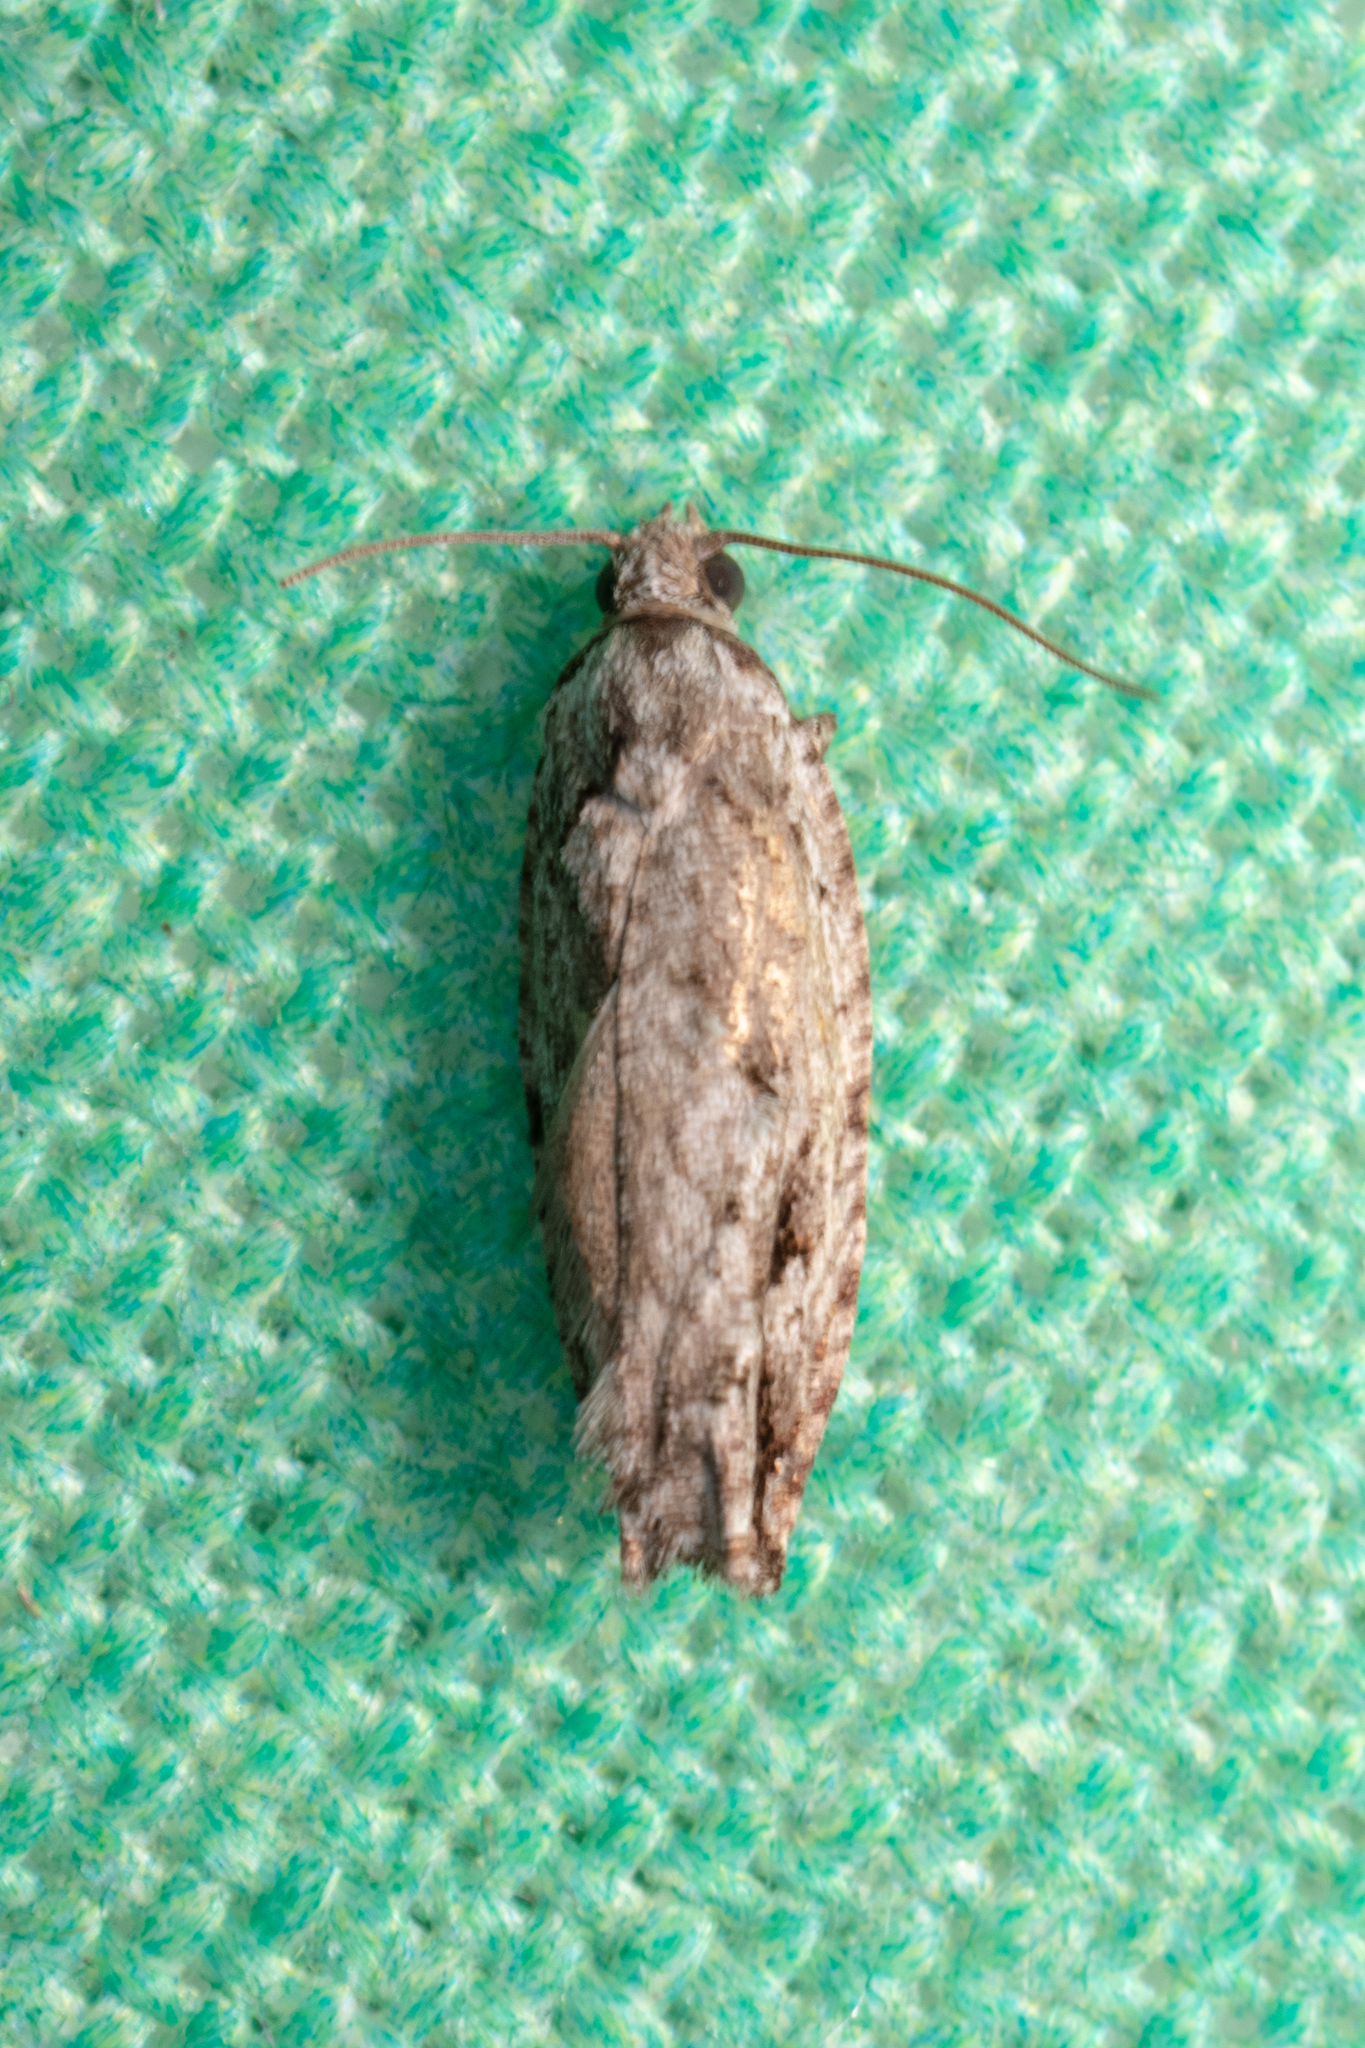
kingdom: Animalia
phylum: Arthropoda
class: Insecta
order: Lepidoptera
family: Tortricidae
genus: Gretchena
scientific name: Gretchena bolliana
